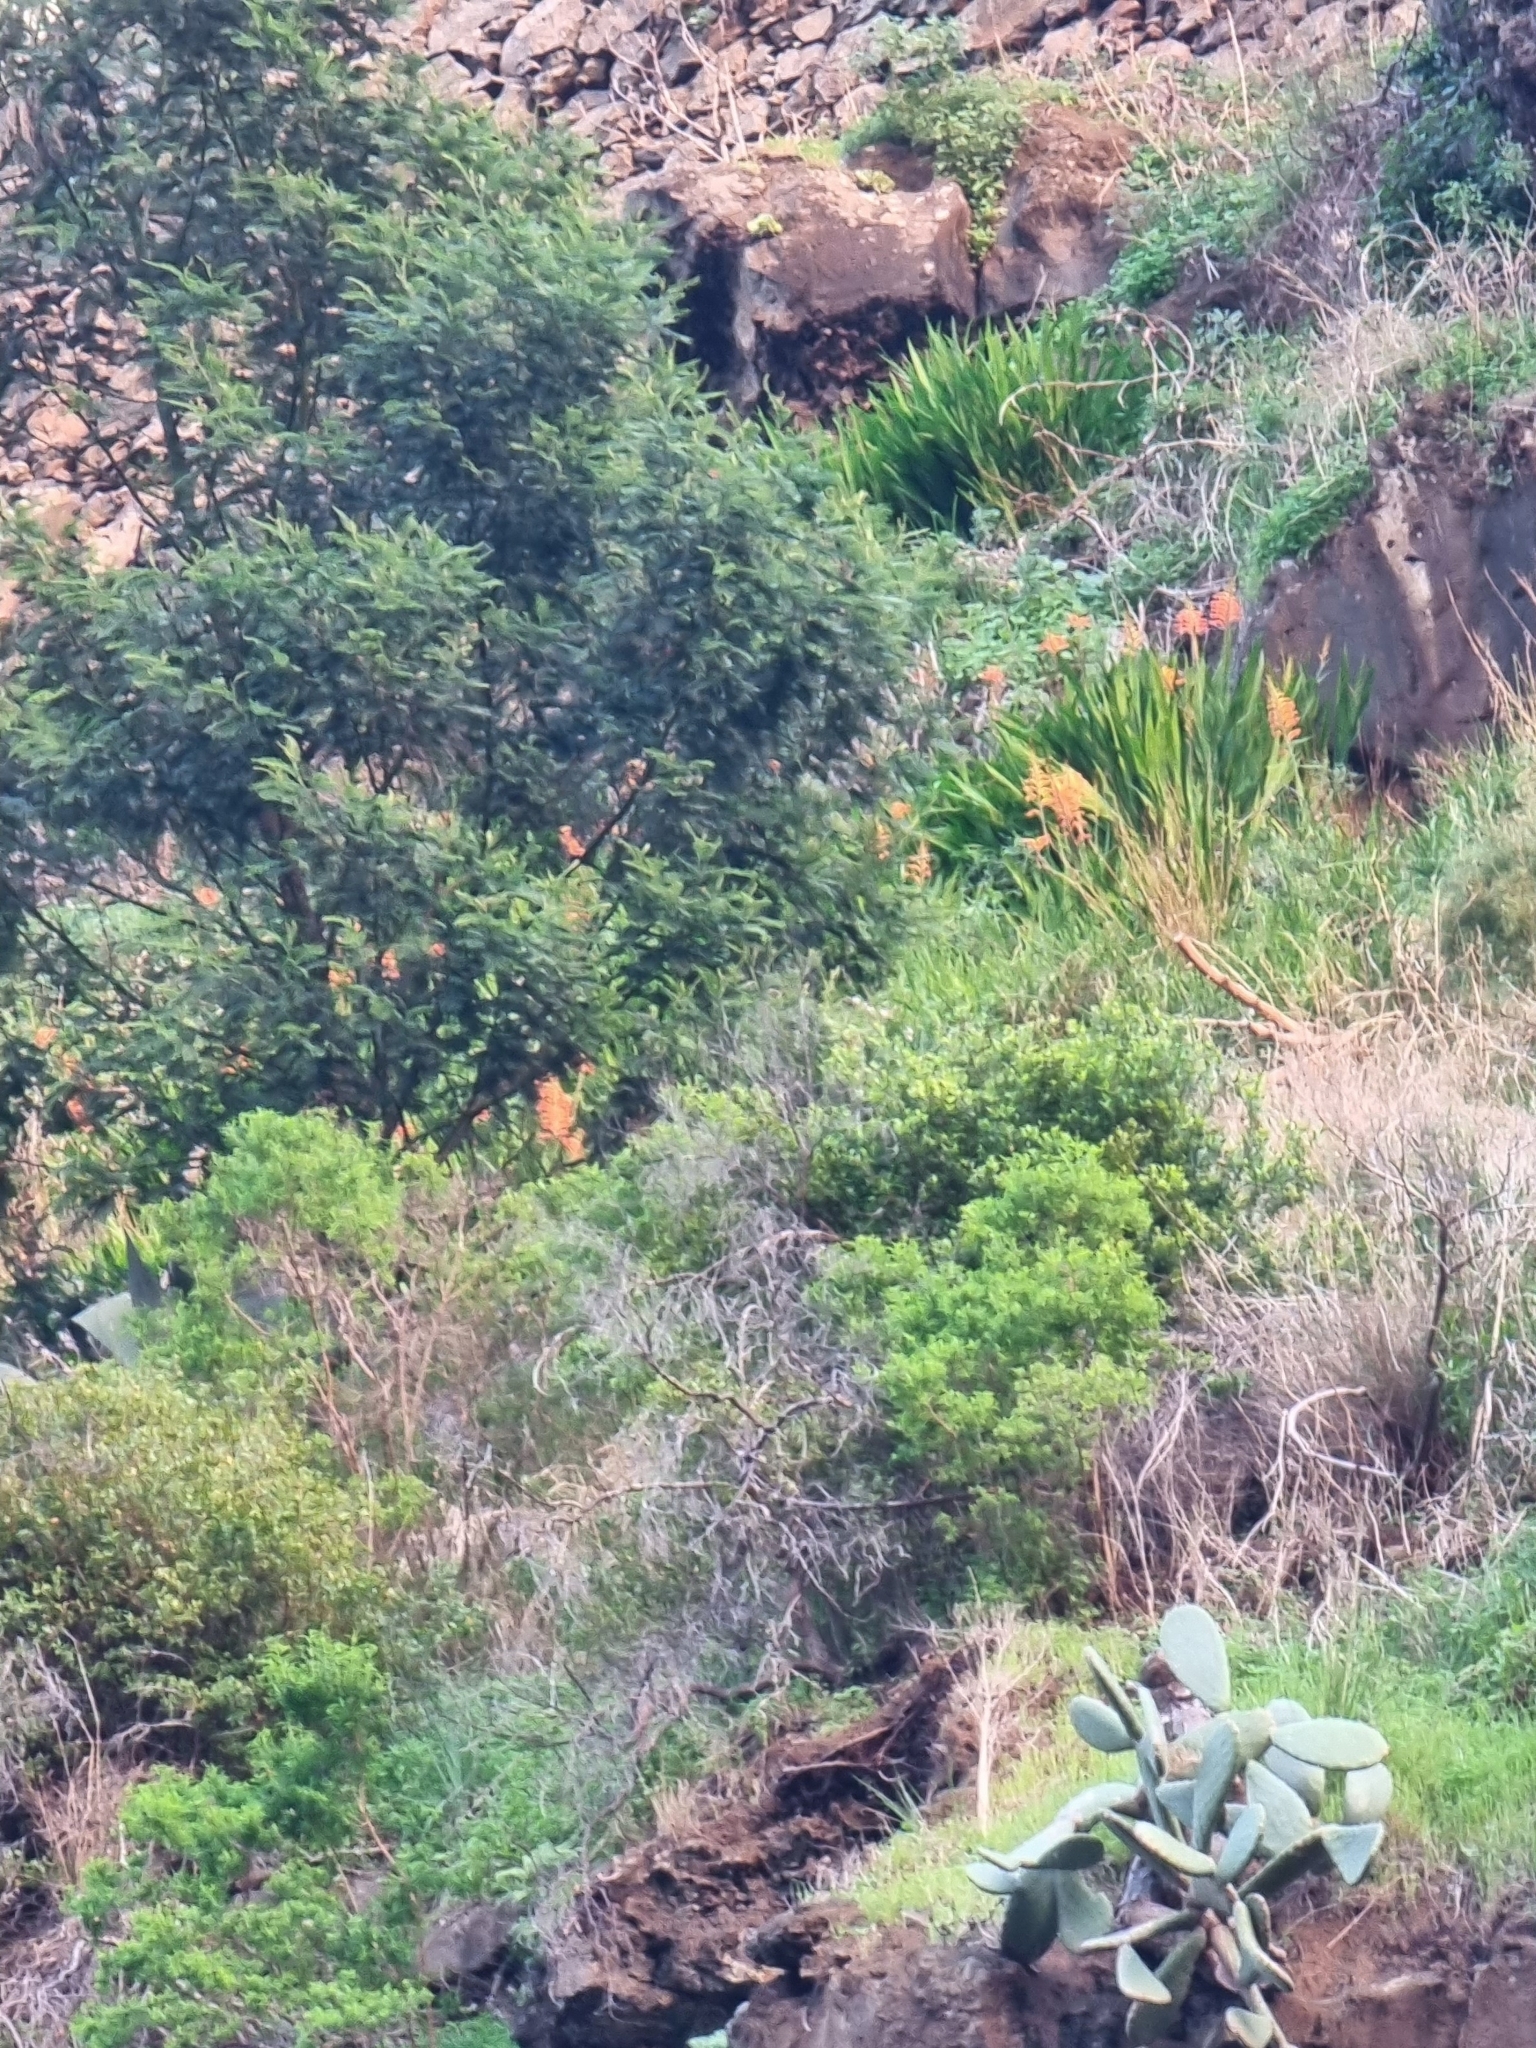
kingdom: Plantae
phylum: Tracheophyta
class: Liliopsida
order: Asparagales
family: Iridaceae
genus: Chasmanthe
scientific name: Chasmanthe floribunda
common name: African cornflag
